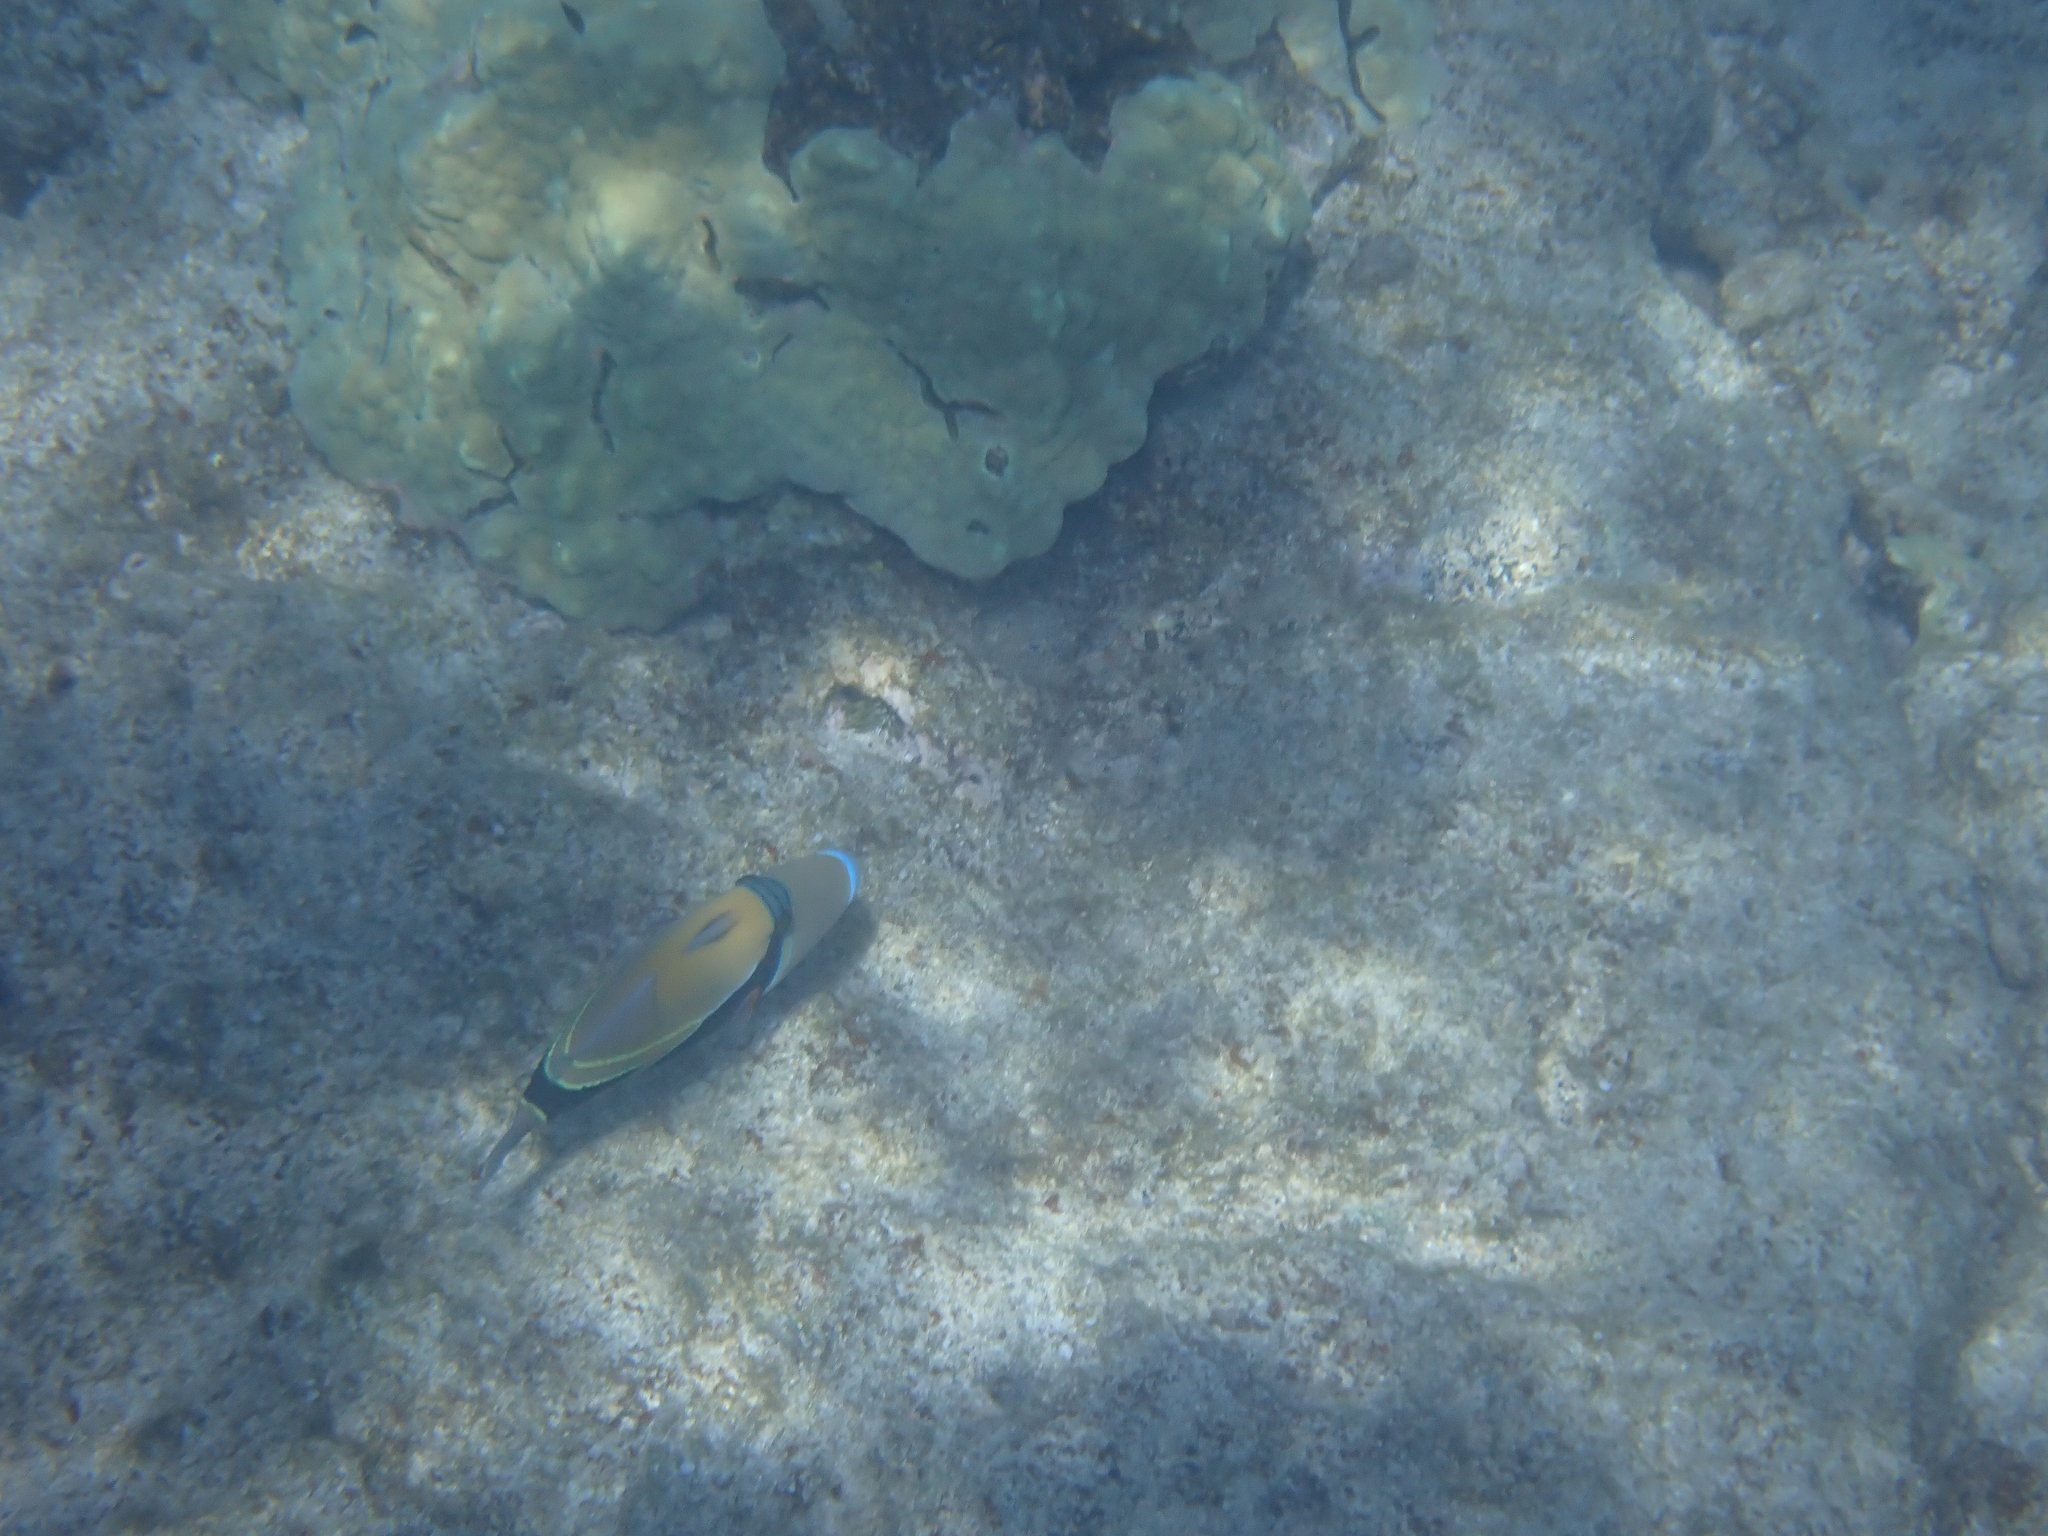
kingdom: Animalia
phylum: Chordata
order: Tetraodontiformes
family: Balistidae
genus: Rhinecanthus
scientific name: Rhinecanthus rectangulus
